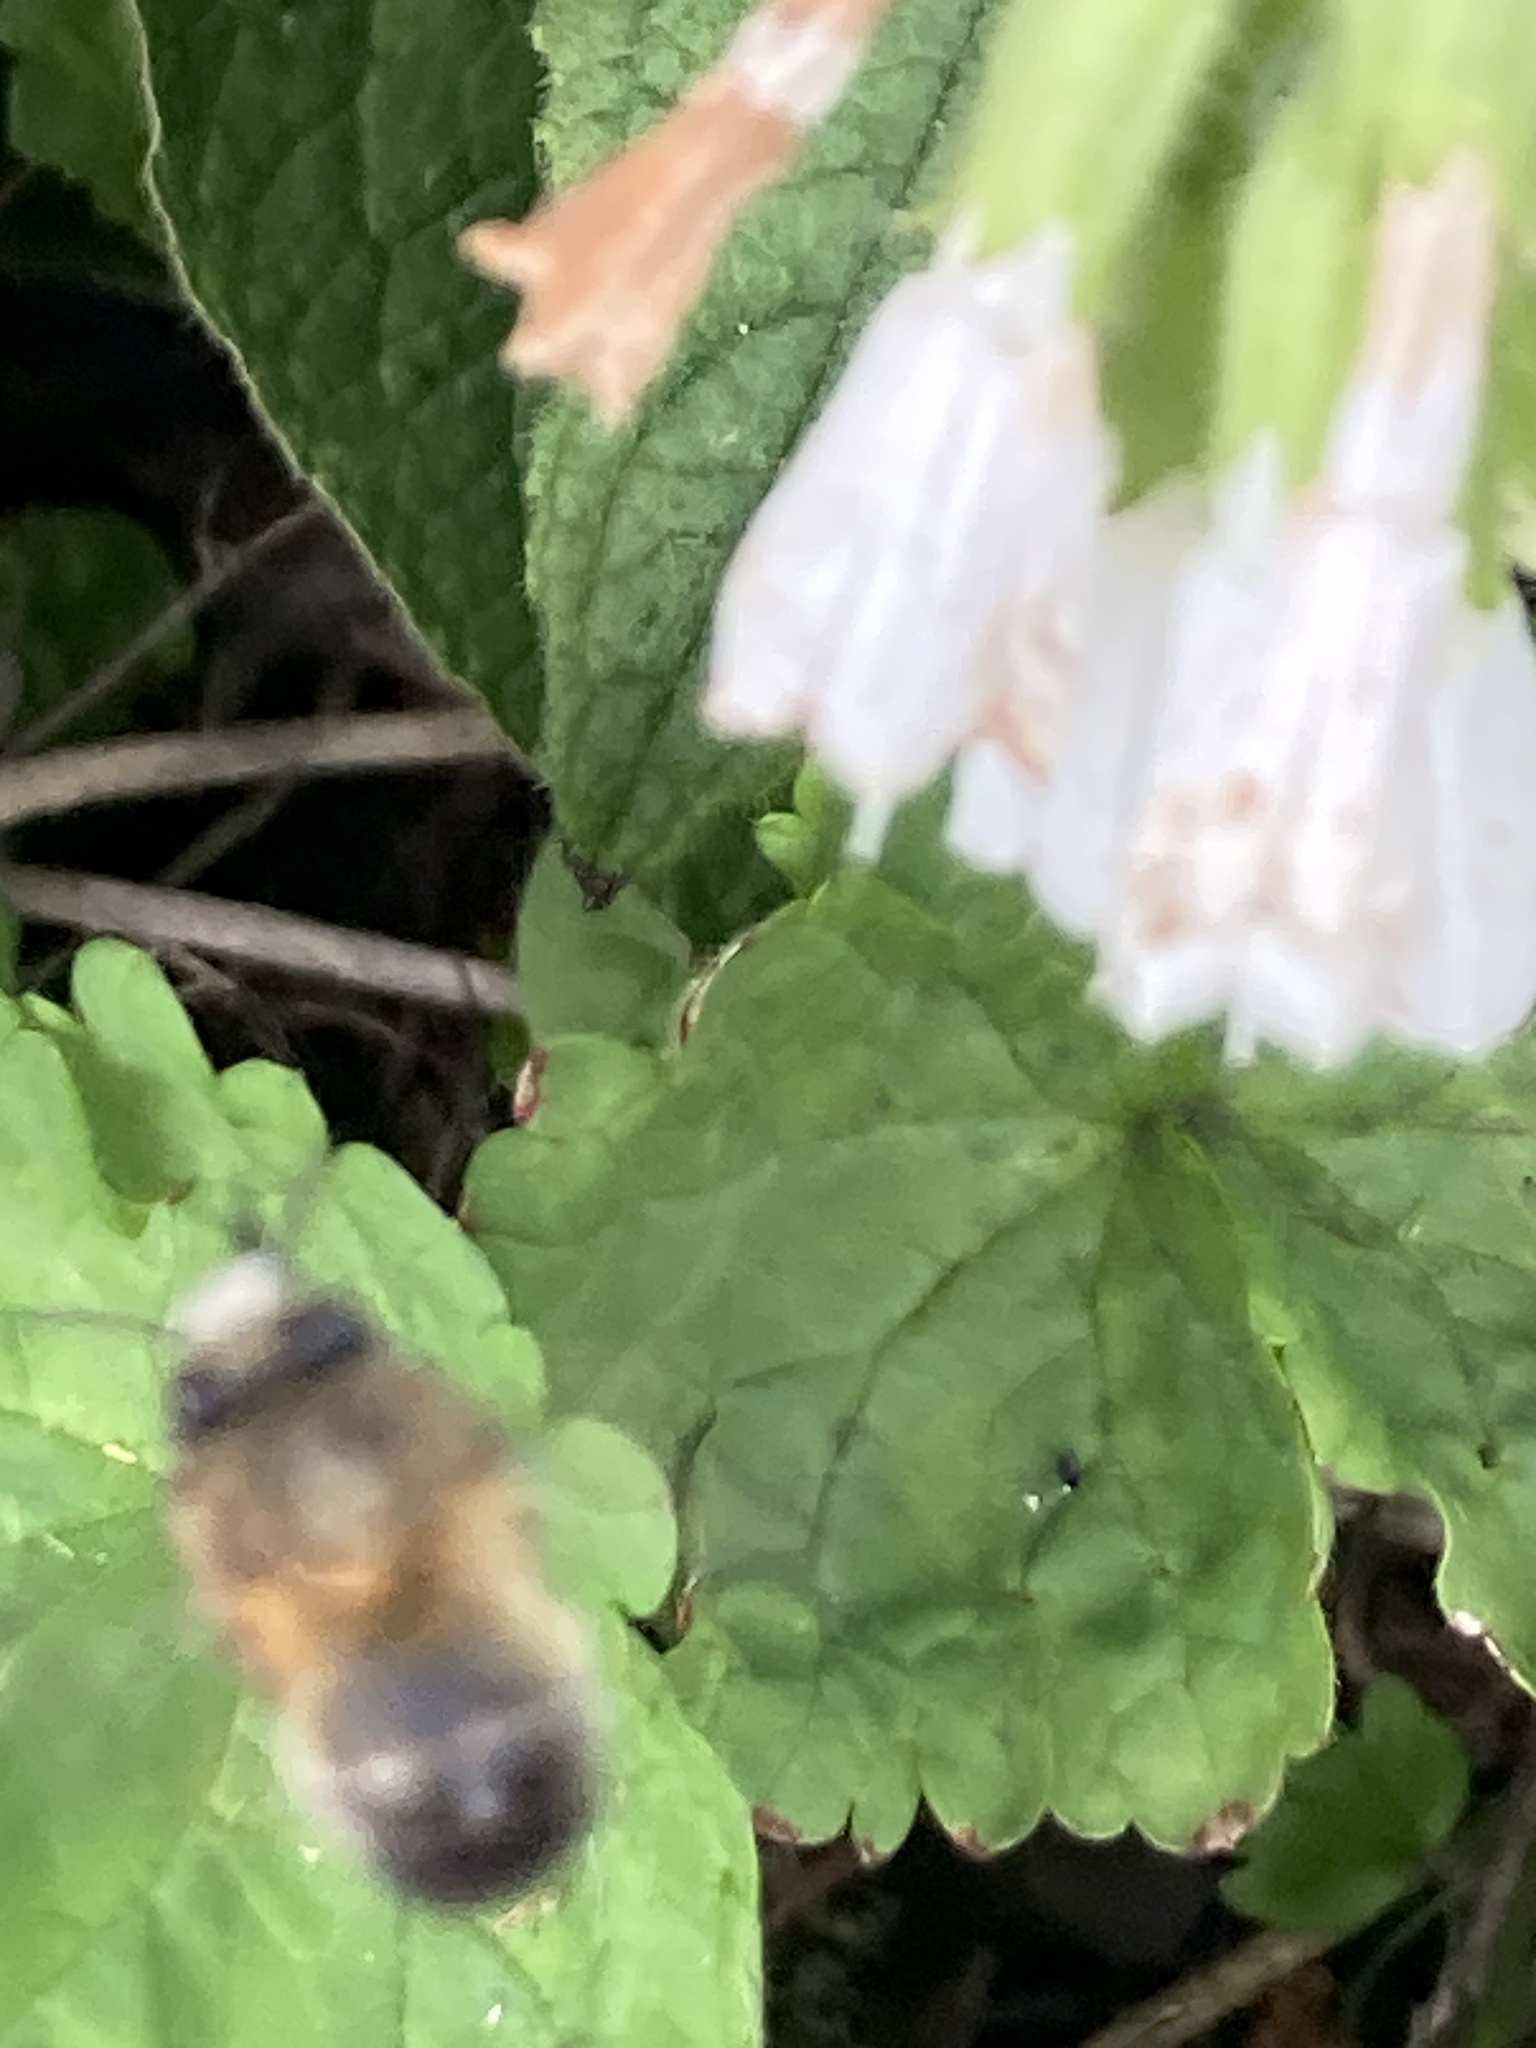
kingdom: Animalia
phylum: Arthropoda
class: Insecta
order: Hymenoptera
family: Apidae
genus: Anthophora
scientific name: Anthophora plumipes
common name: Hairy-footed flower bee
